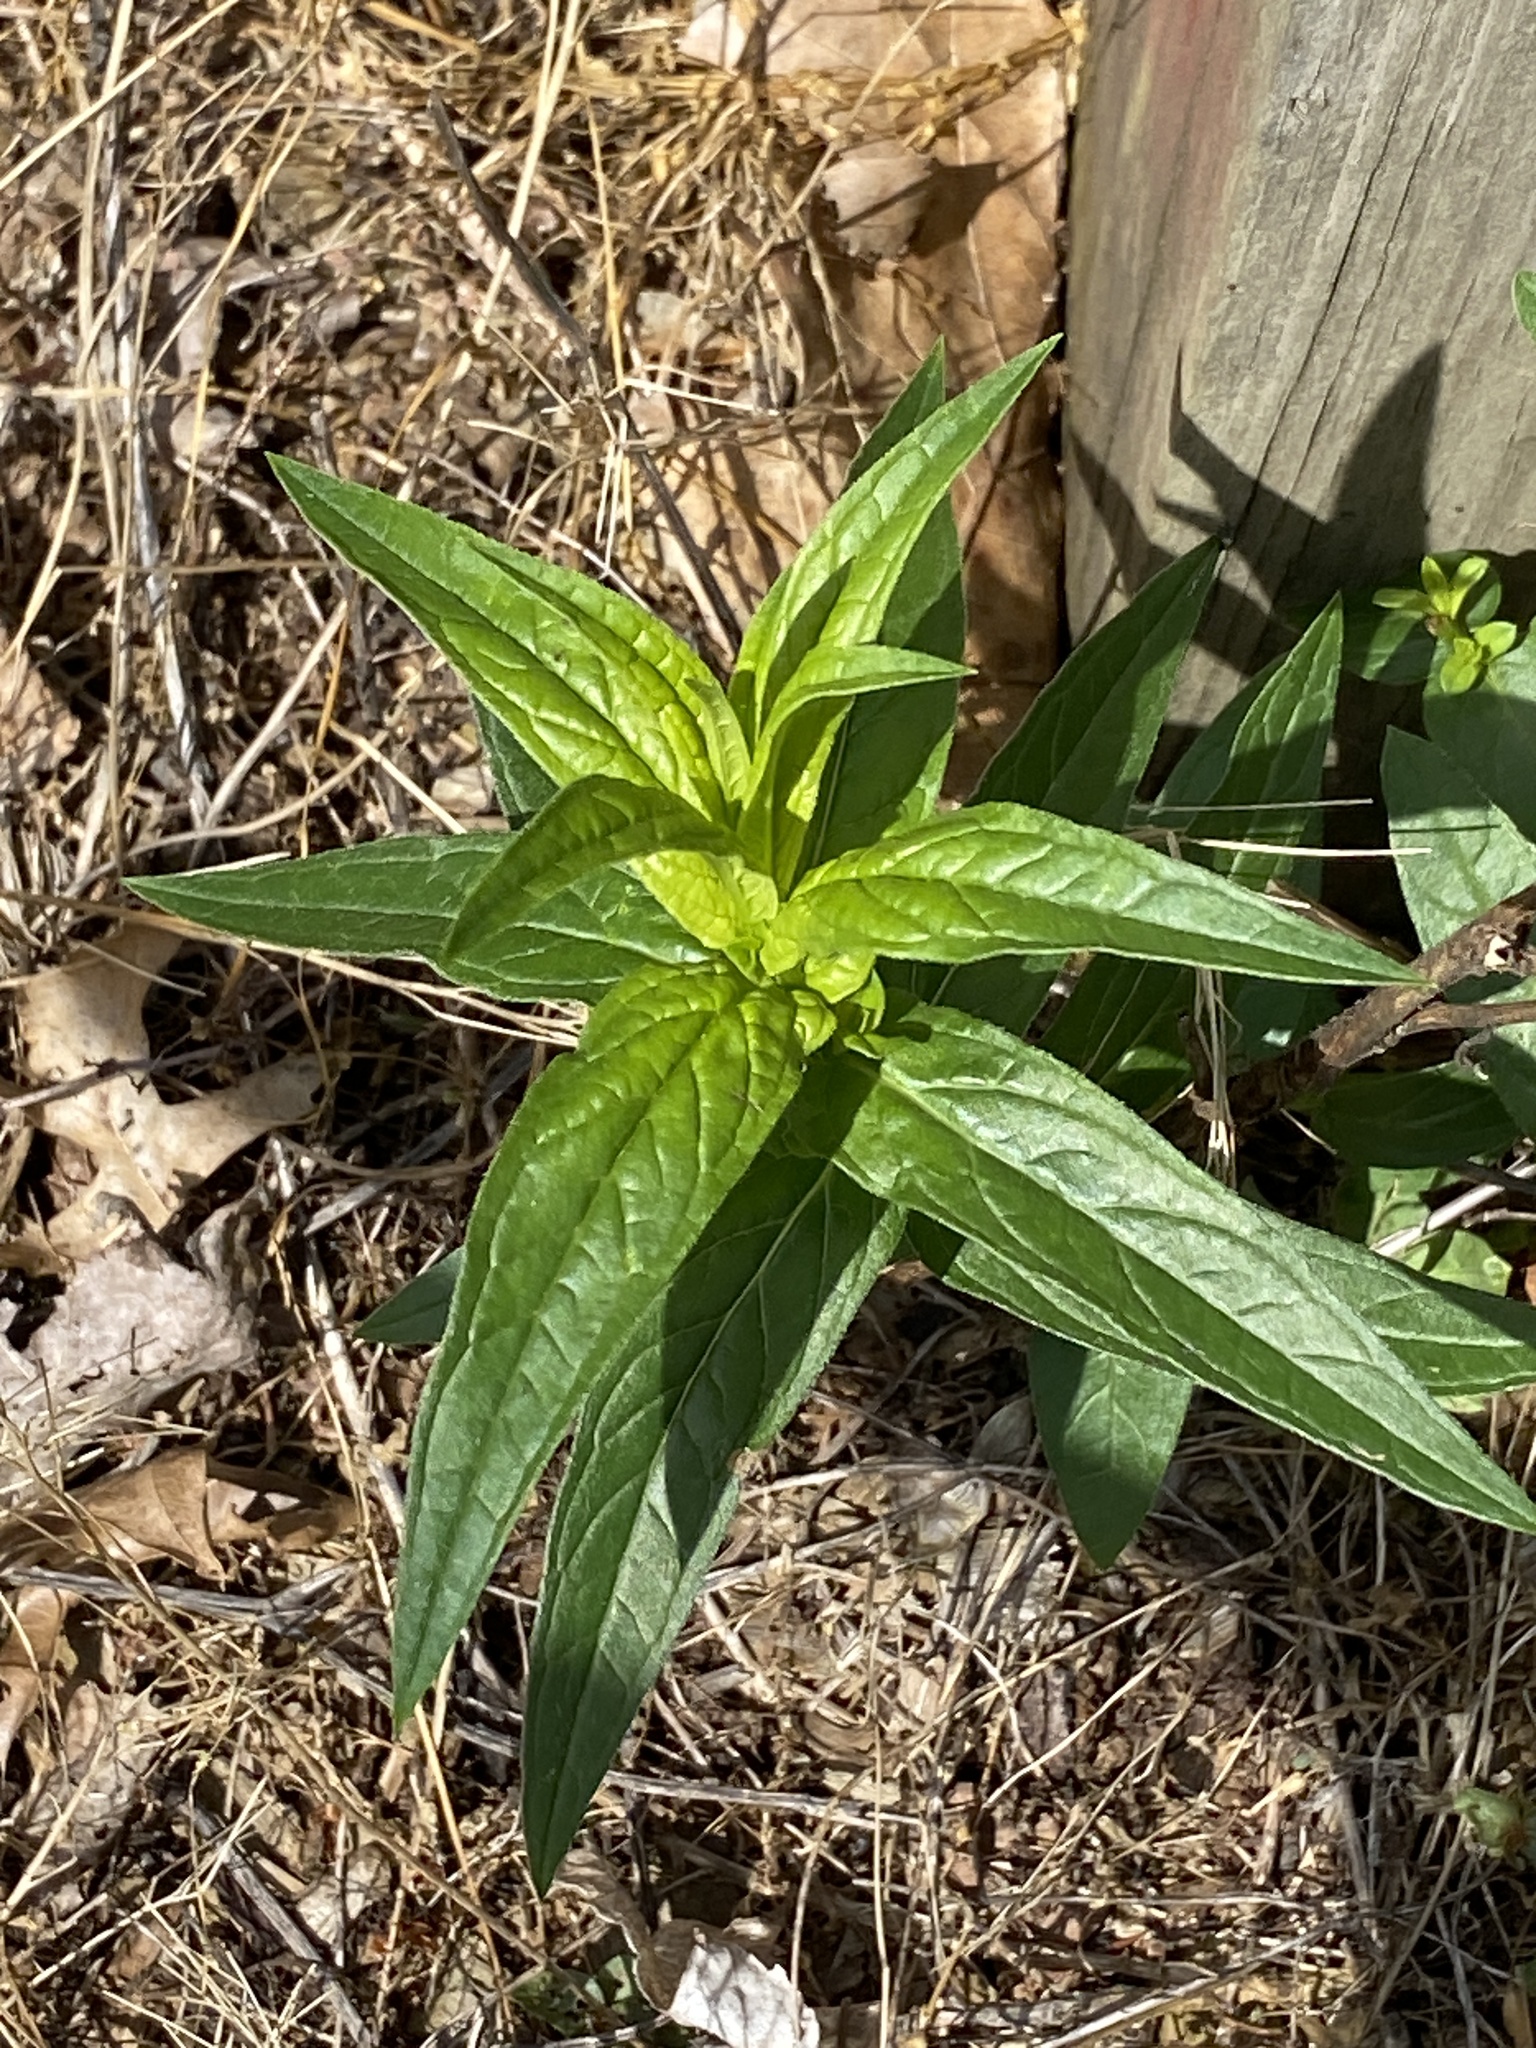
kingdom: Plantae
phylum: Tracheophyta
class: Magnoliopsida
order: Myrtales
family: Lythraceae
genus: Lythrum
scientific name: Lythrum salicaria
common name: Purple loosestrife
